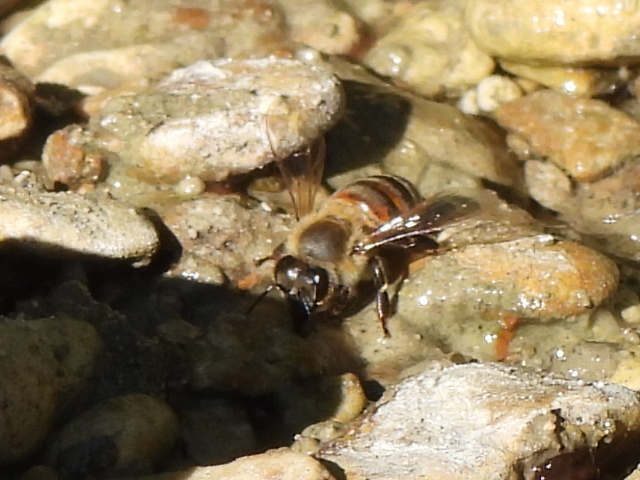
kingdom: Animalia
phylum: Arthropoda
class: Insecta
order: Hymenoptera
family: Apidae
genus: Apis
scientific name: Apis mellifera
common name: Honey bee
